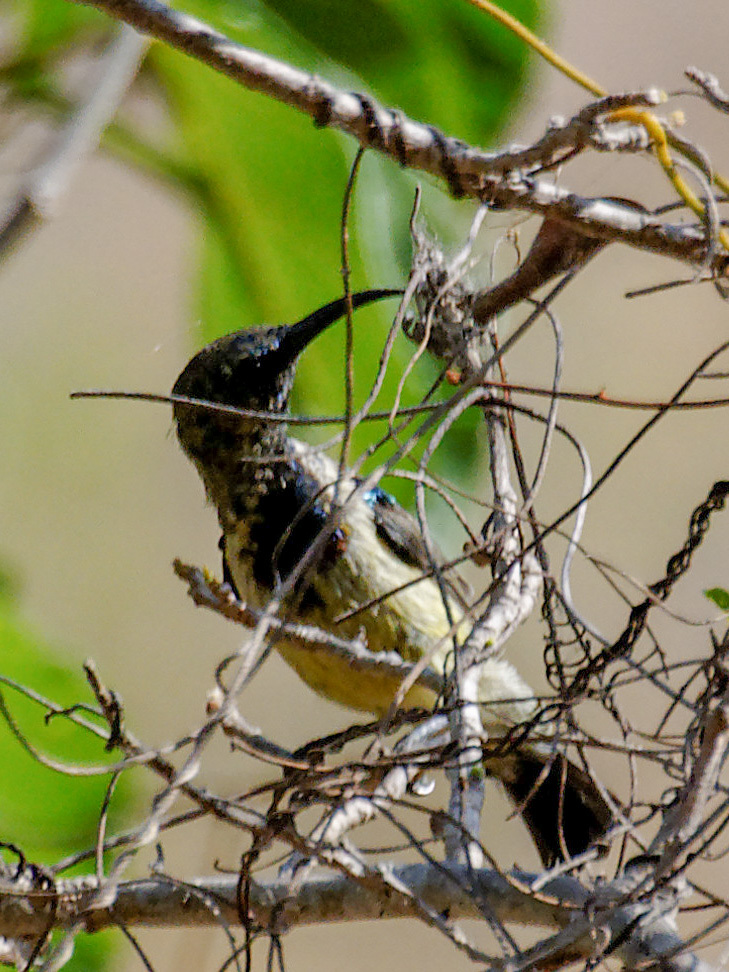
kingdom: Animalia
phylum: Chordata
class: Aves
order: Passeriformes
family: Nectariniidae
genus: Cinnyris
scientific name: Cinnyris sovimanga
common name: Souimanga sunbird
